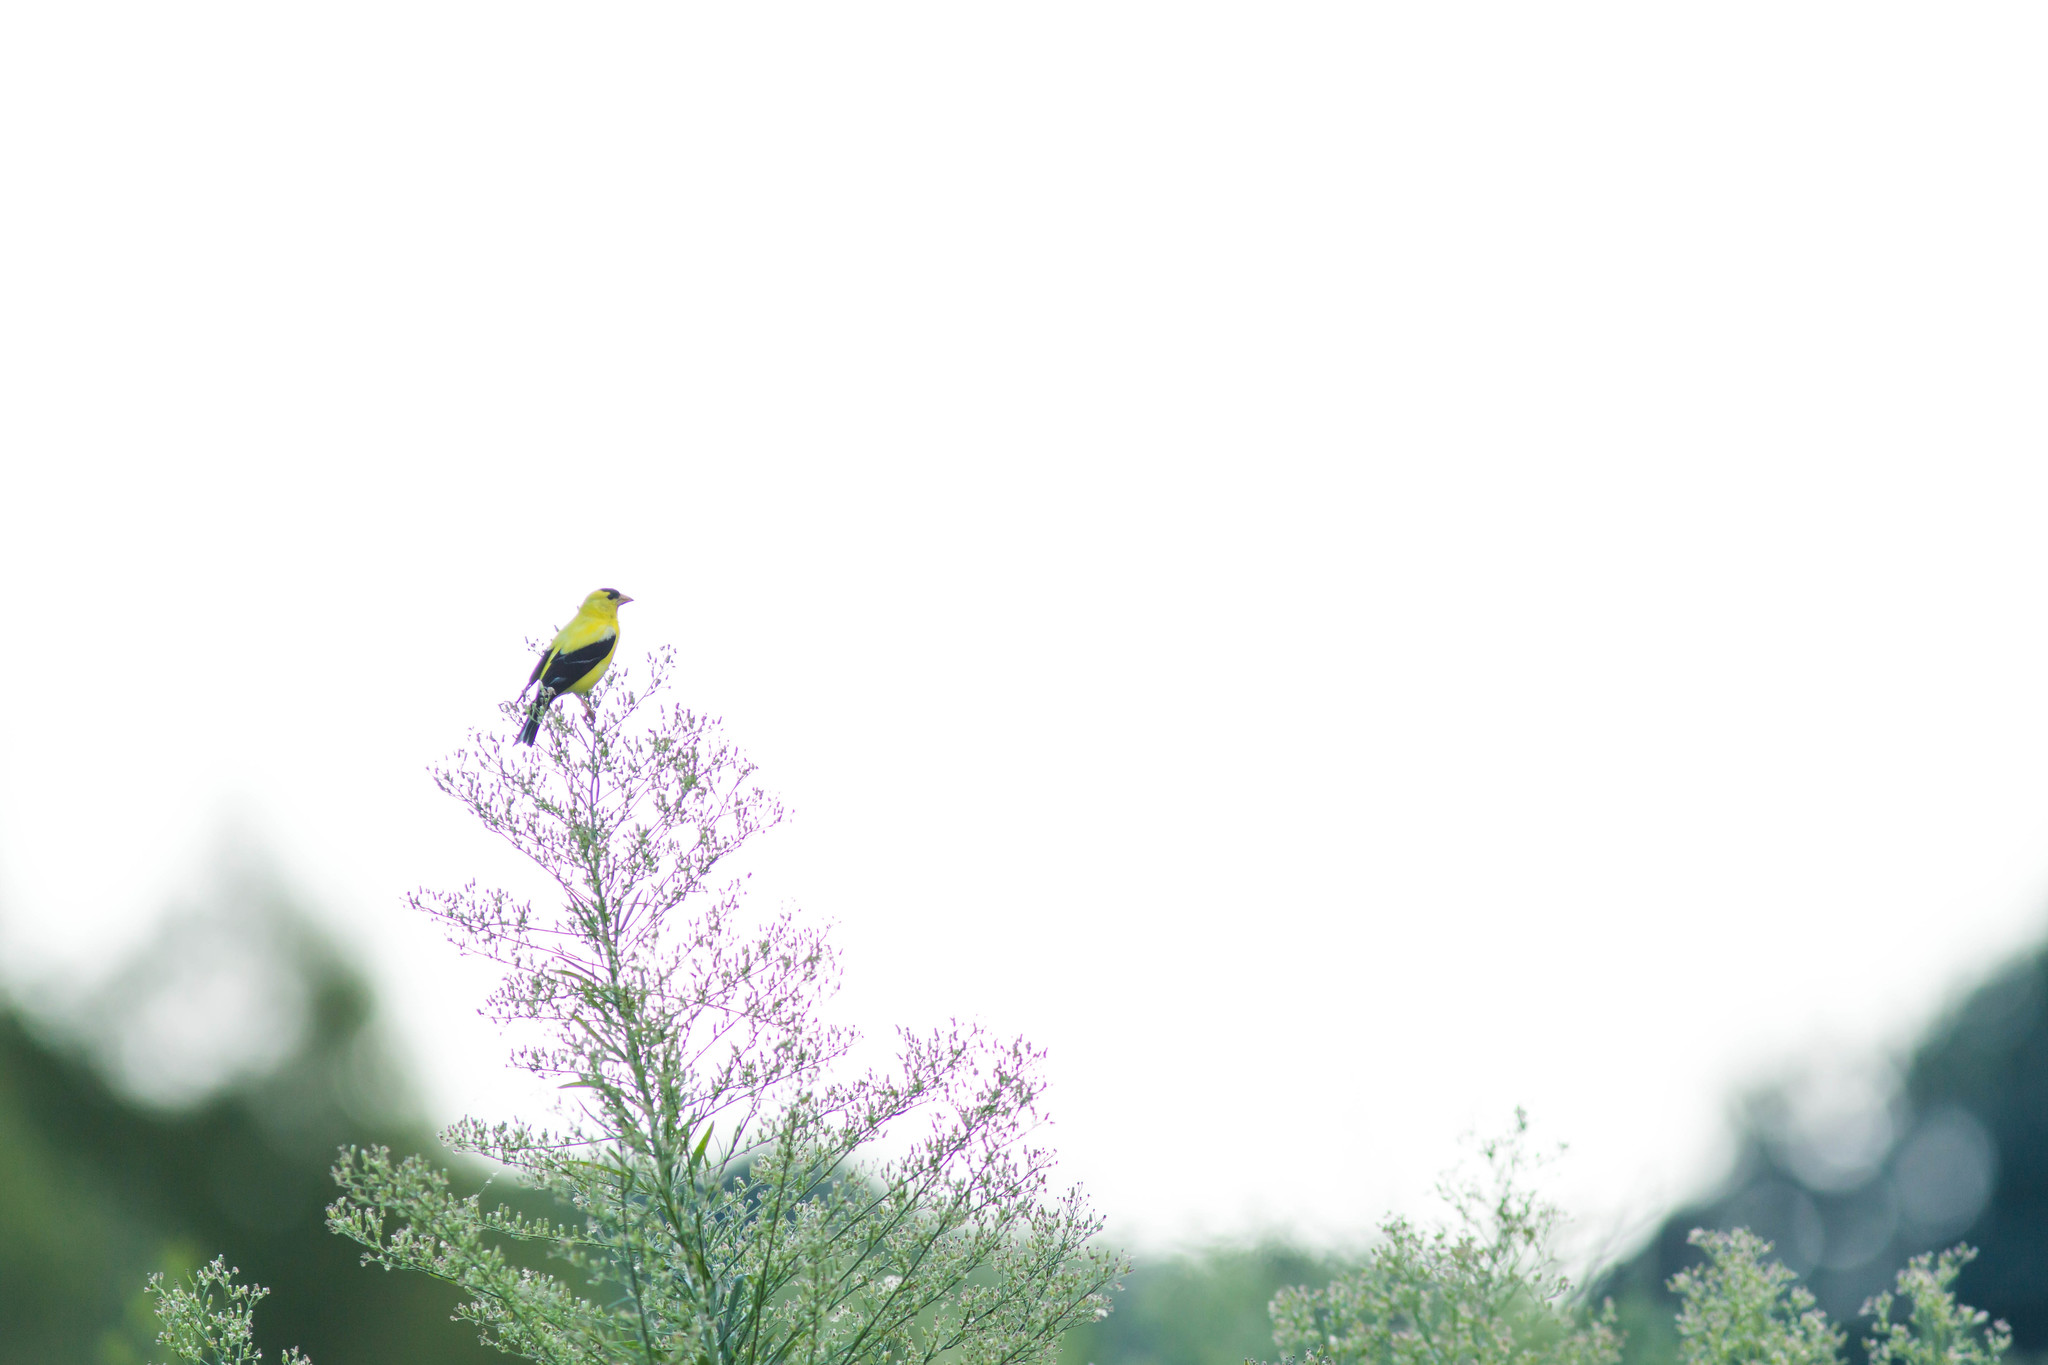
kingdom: Animalia
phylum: Chordata
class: Aves
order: Passeriformes
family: Fringillidae
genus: Spinus
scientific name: Spinus tristis
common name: American goldfinch
